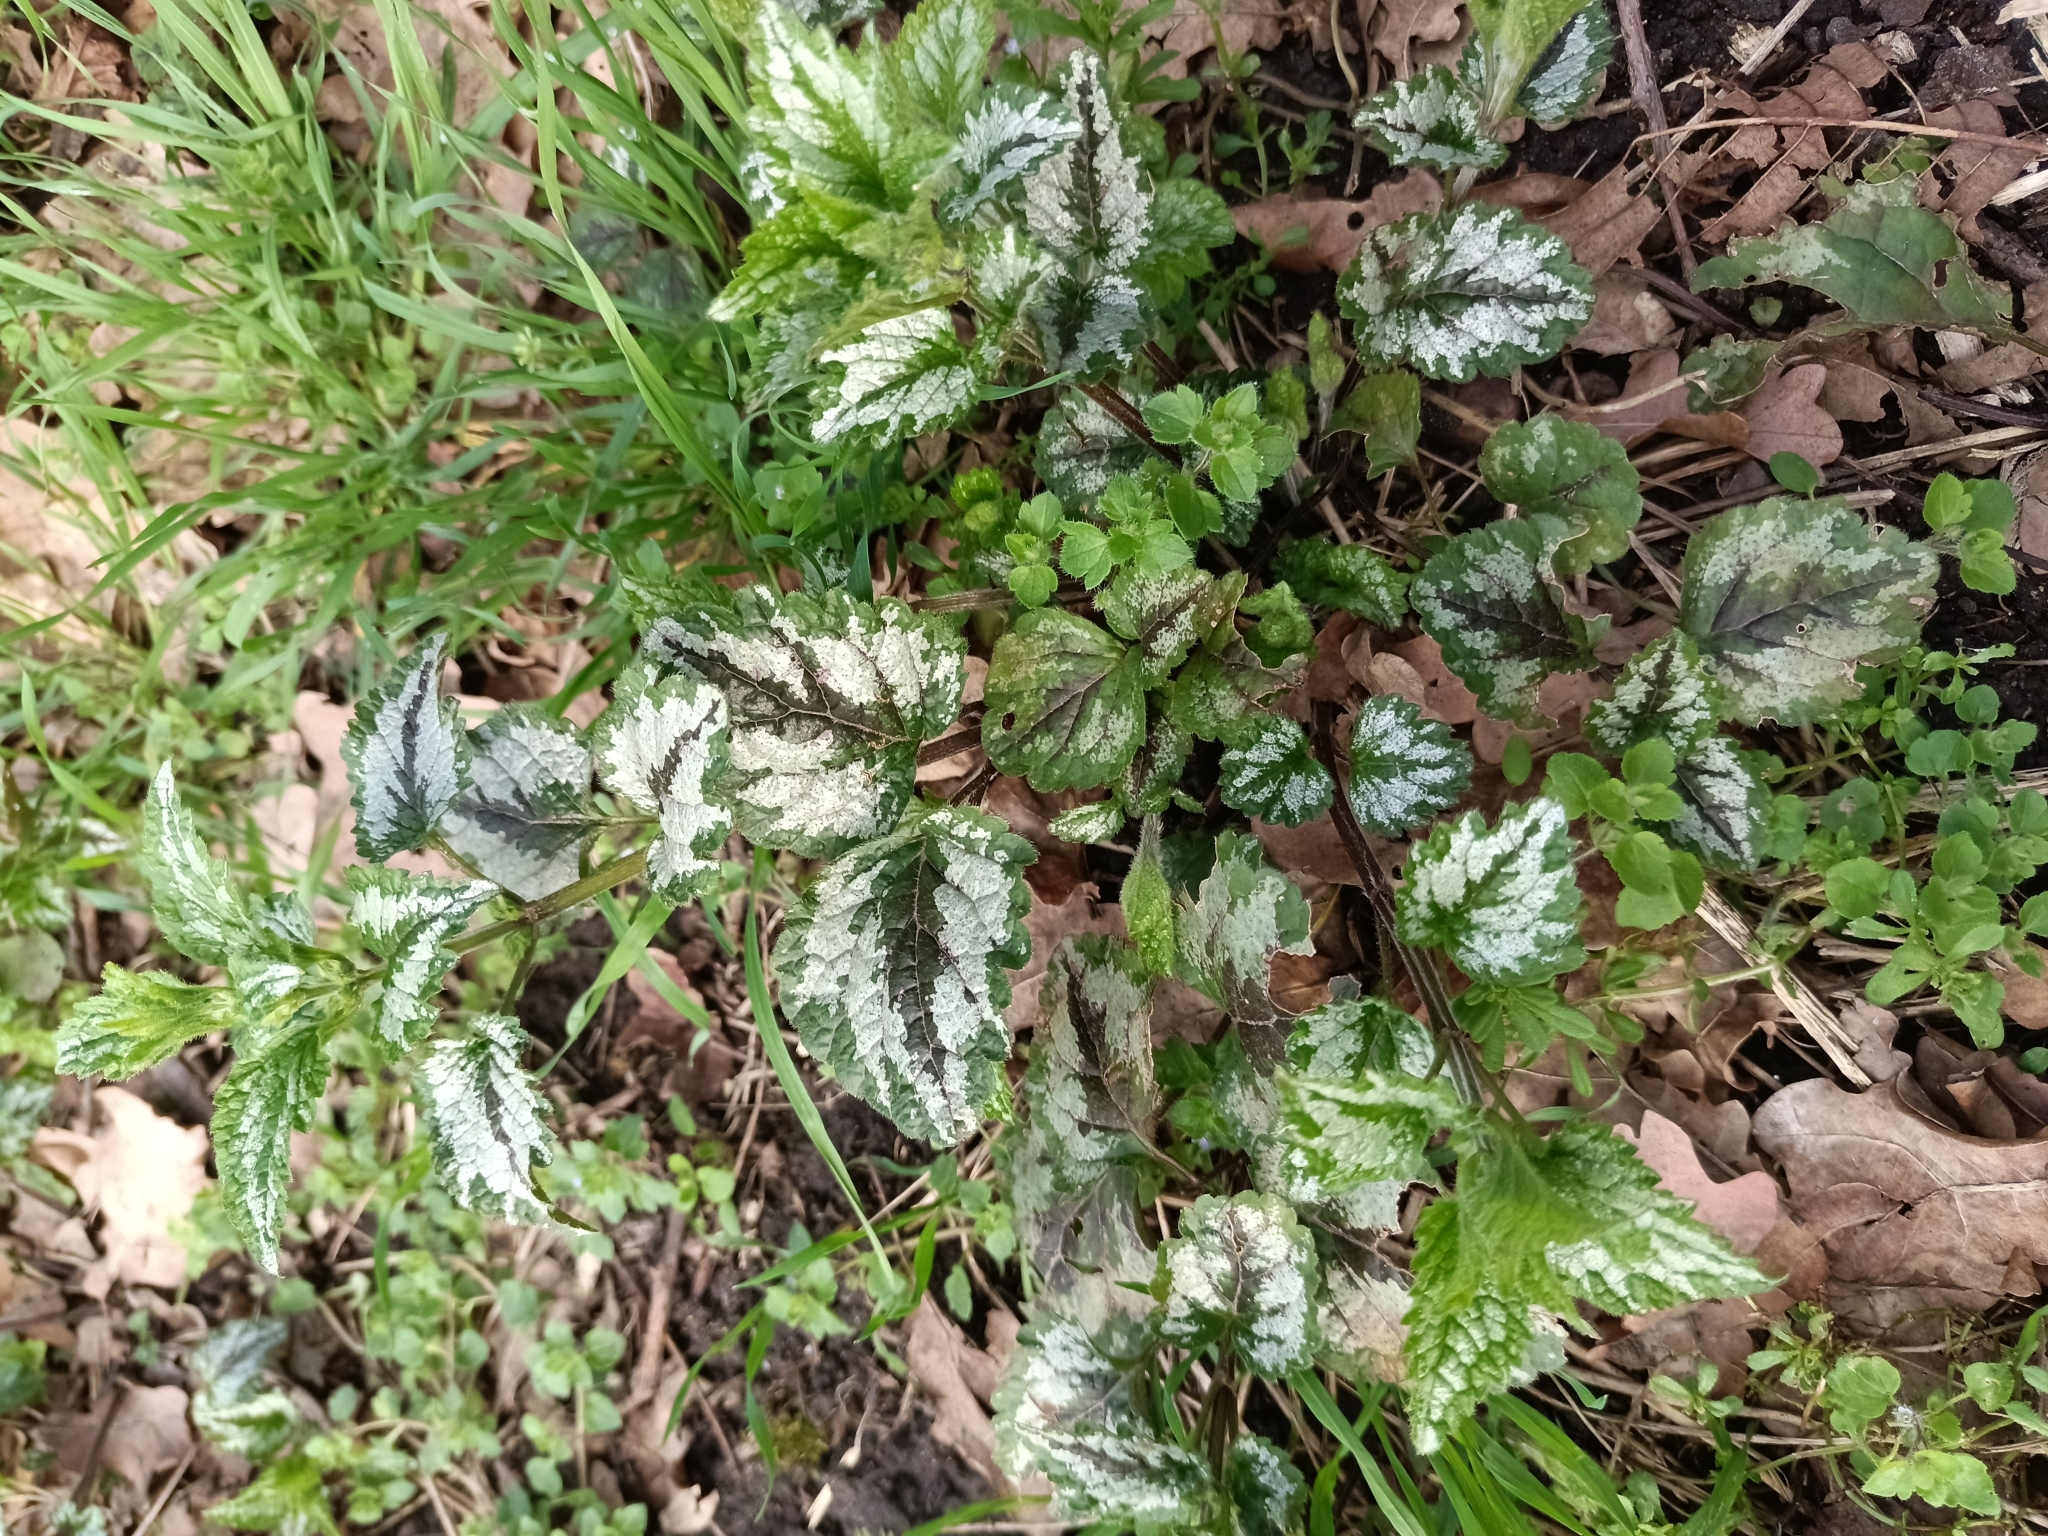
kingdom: Plantae
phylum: Tracheophyta
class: Magnoliopsida
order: Lamiales
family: Lamiaceae
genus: Lamium
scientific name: Lamium galeobdolon
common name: Yellow archangel
